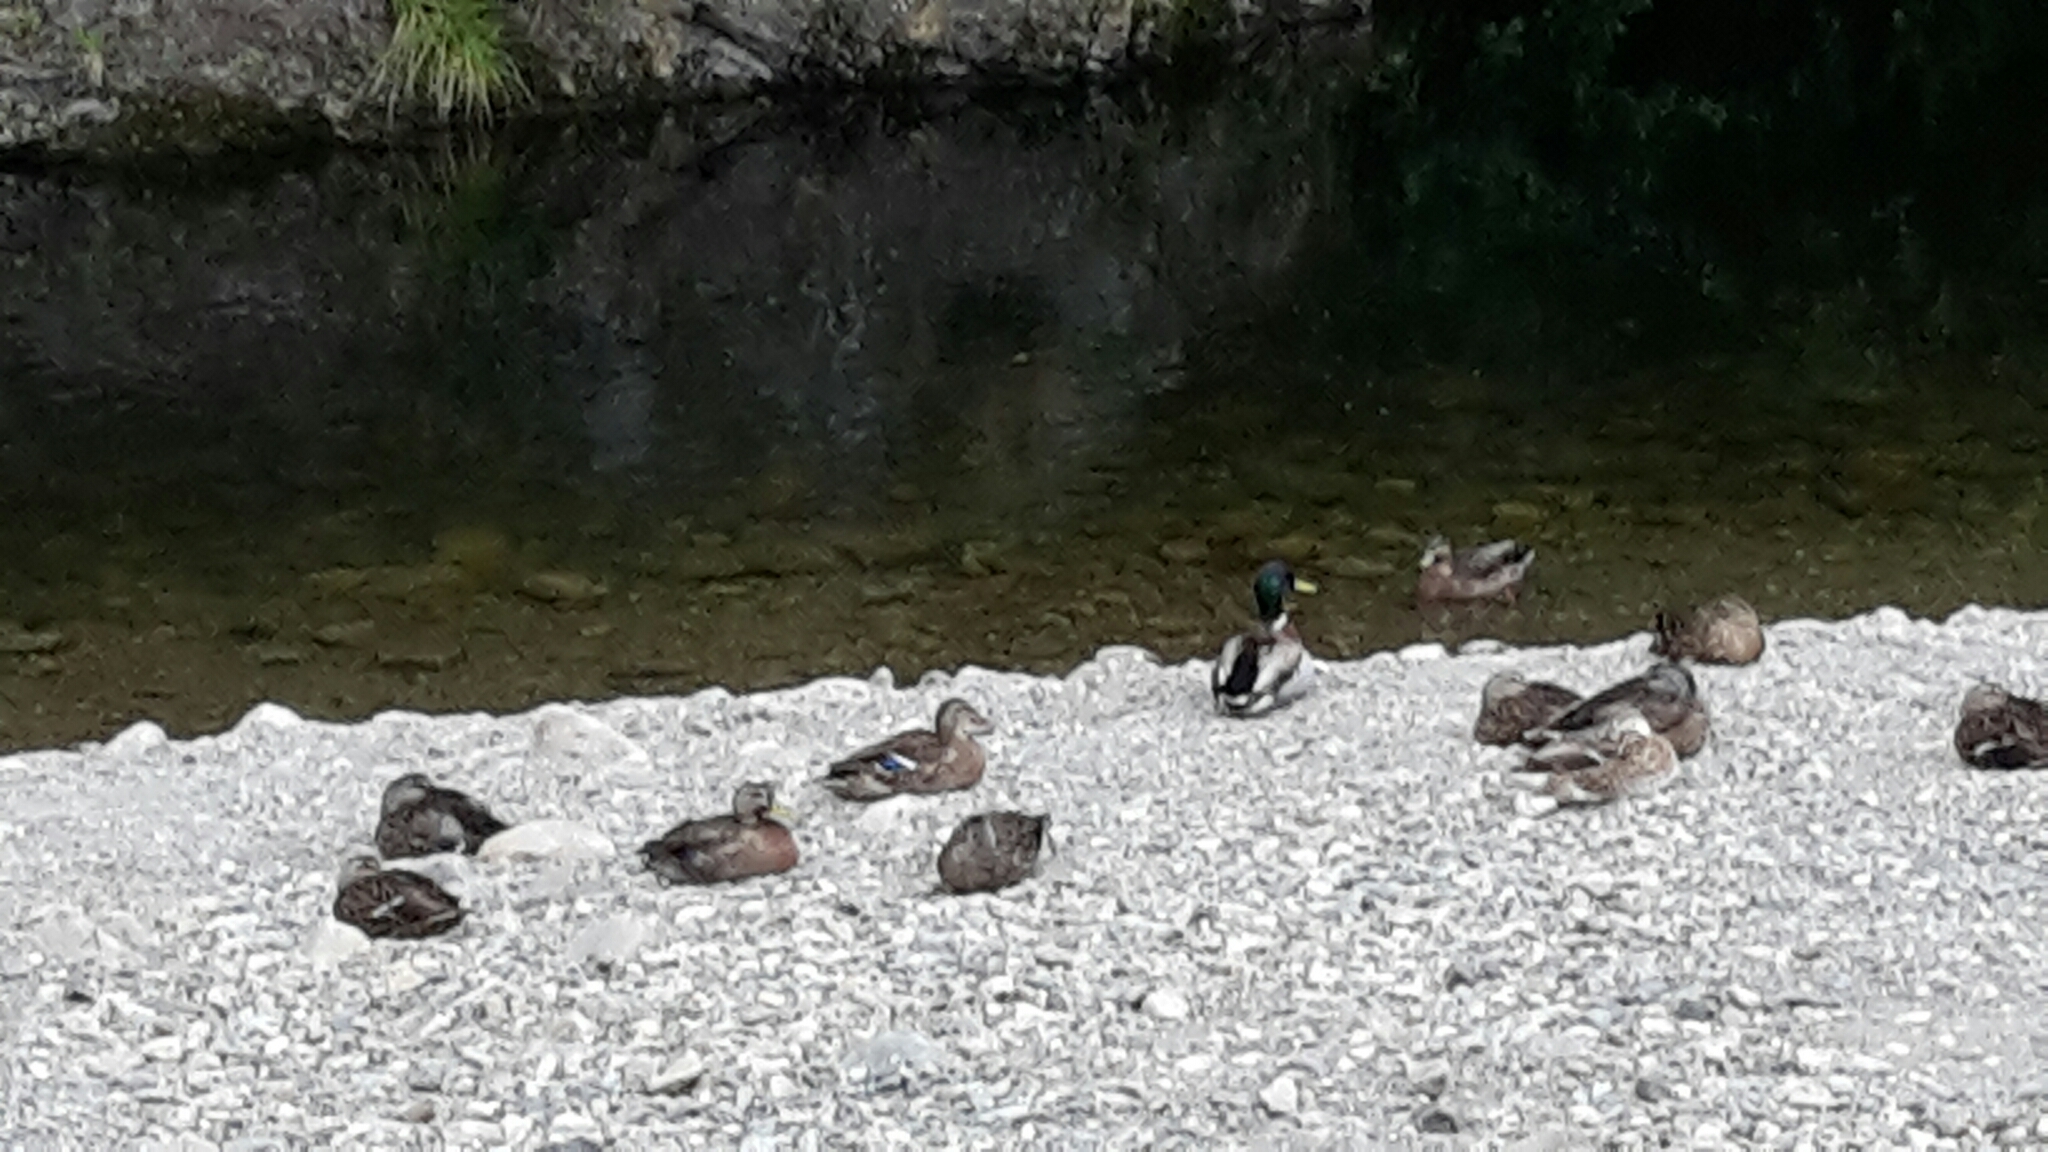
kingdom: Animalia
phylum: Chordata
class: Aves
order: Anseriformes
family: Anatidae
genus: Anas
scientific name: Anas platyrhynchos
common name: Mallard
